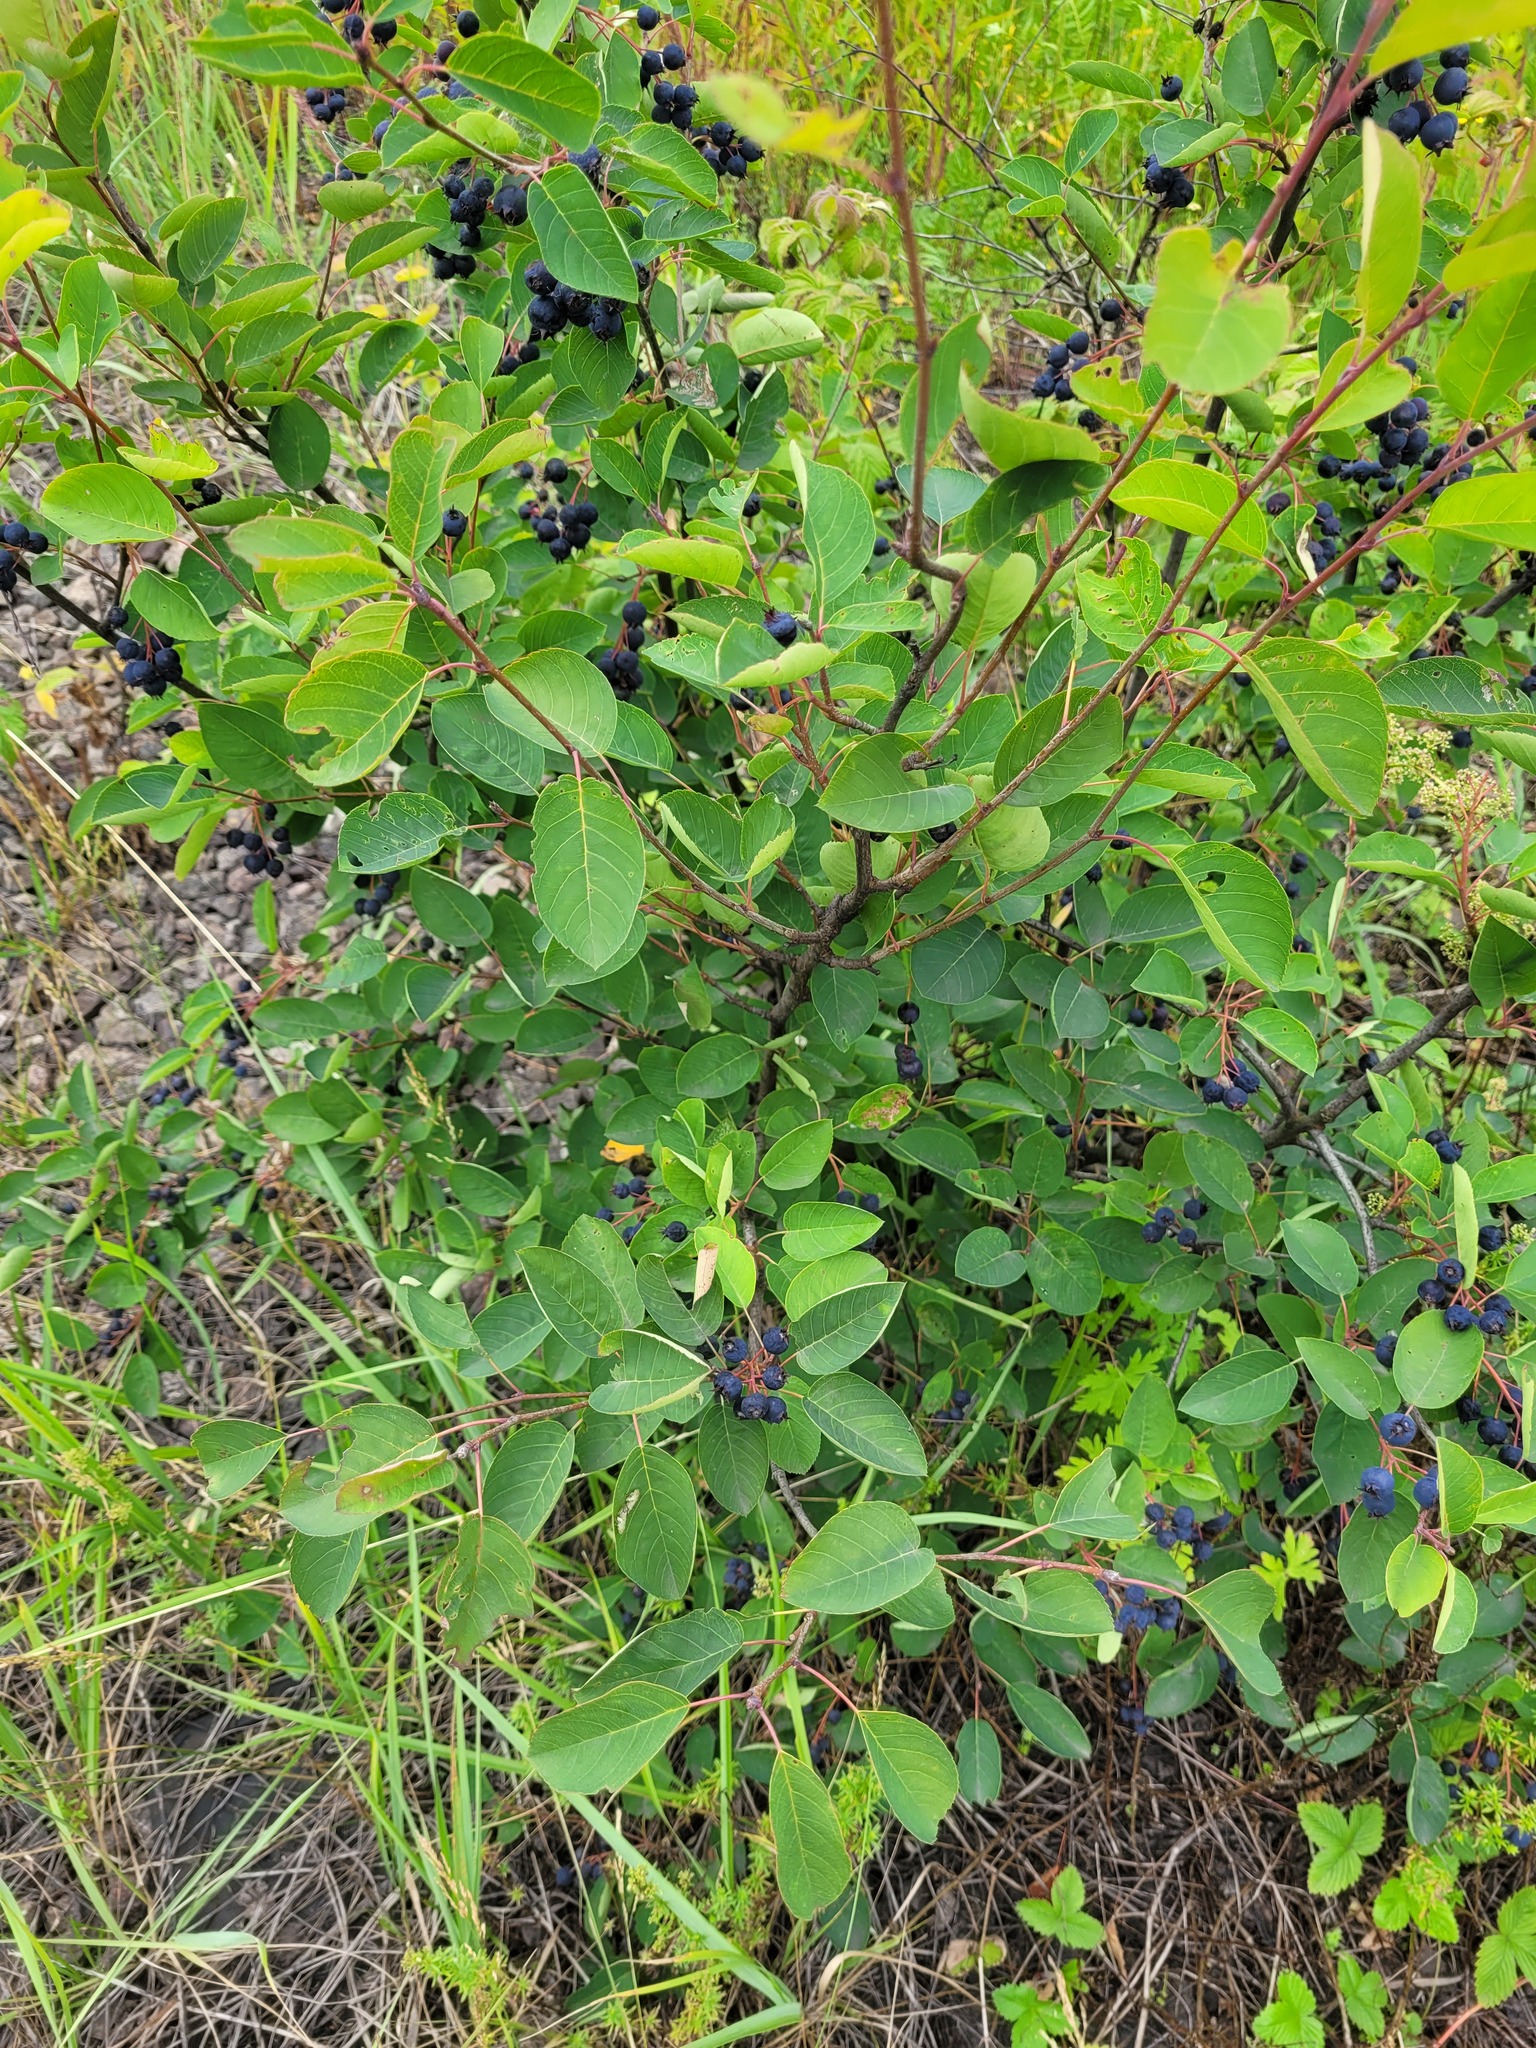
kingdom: Plantae
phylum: Tracheophyta
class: Magnoliopsida
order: Rosales
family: Rosaceae
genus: Amelanchier
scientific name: Amelanchier
